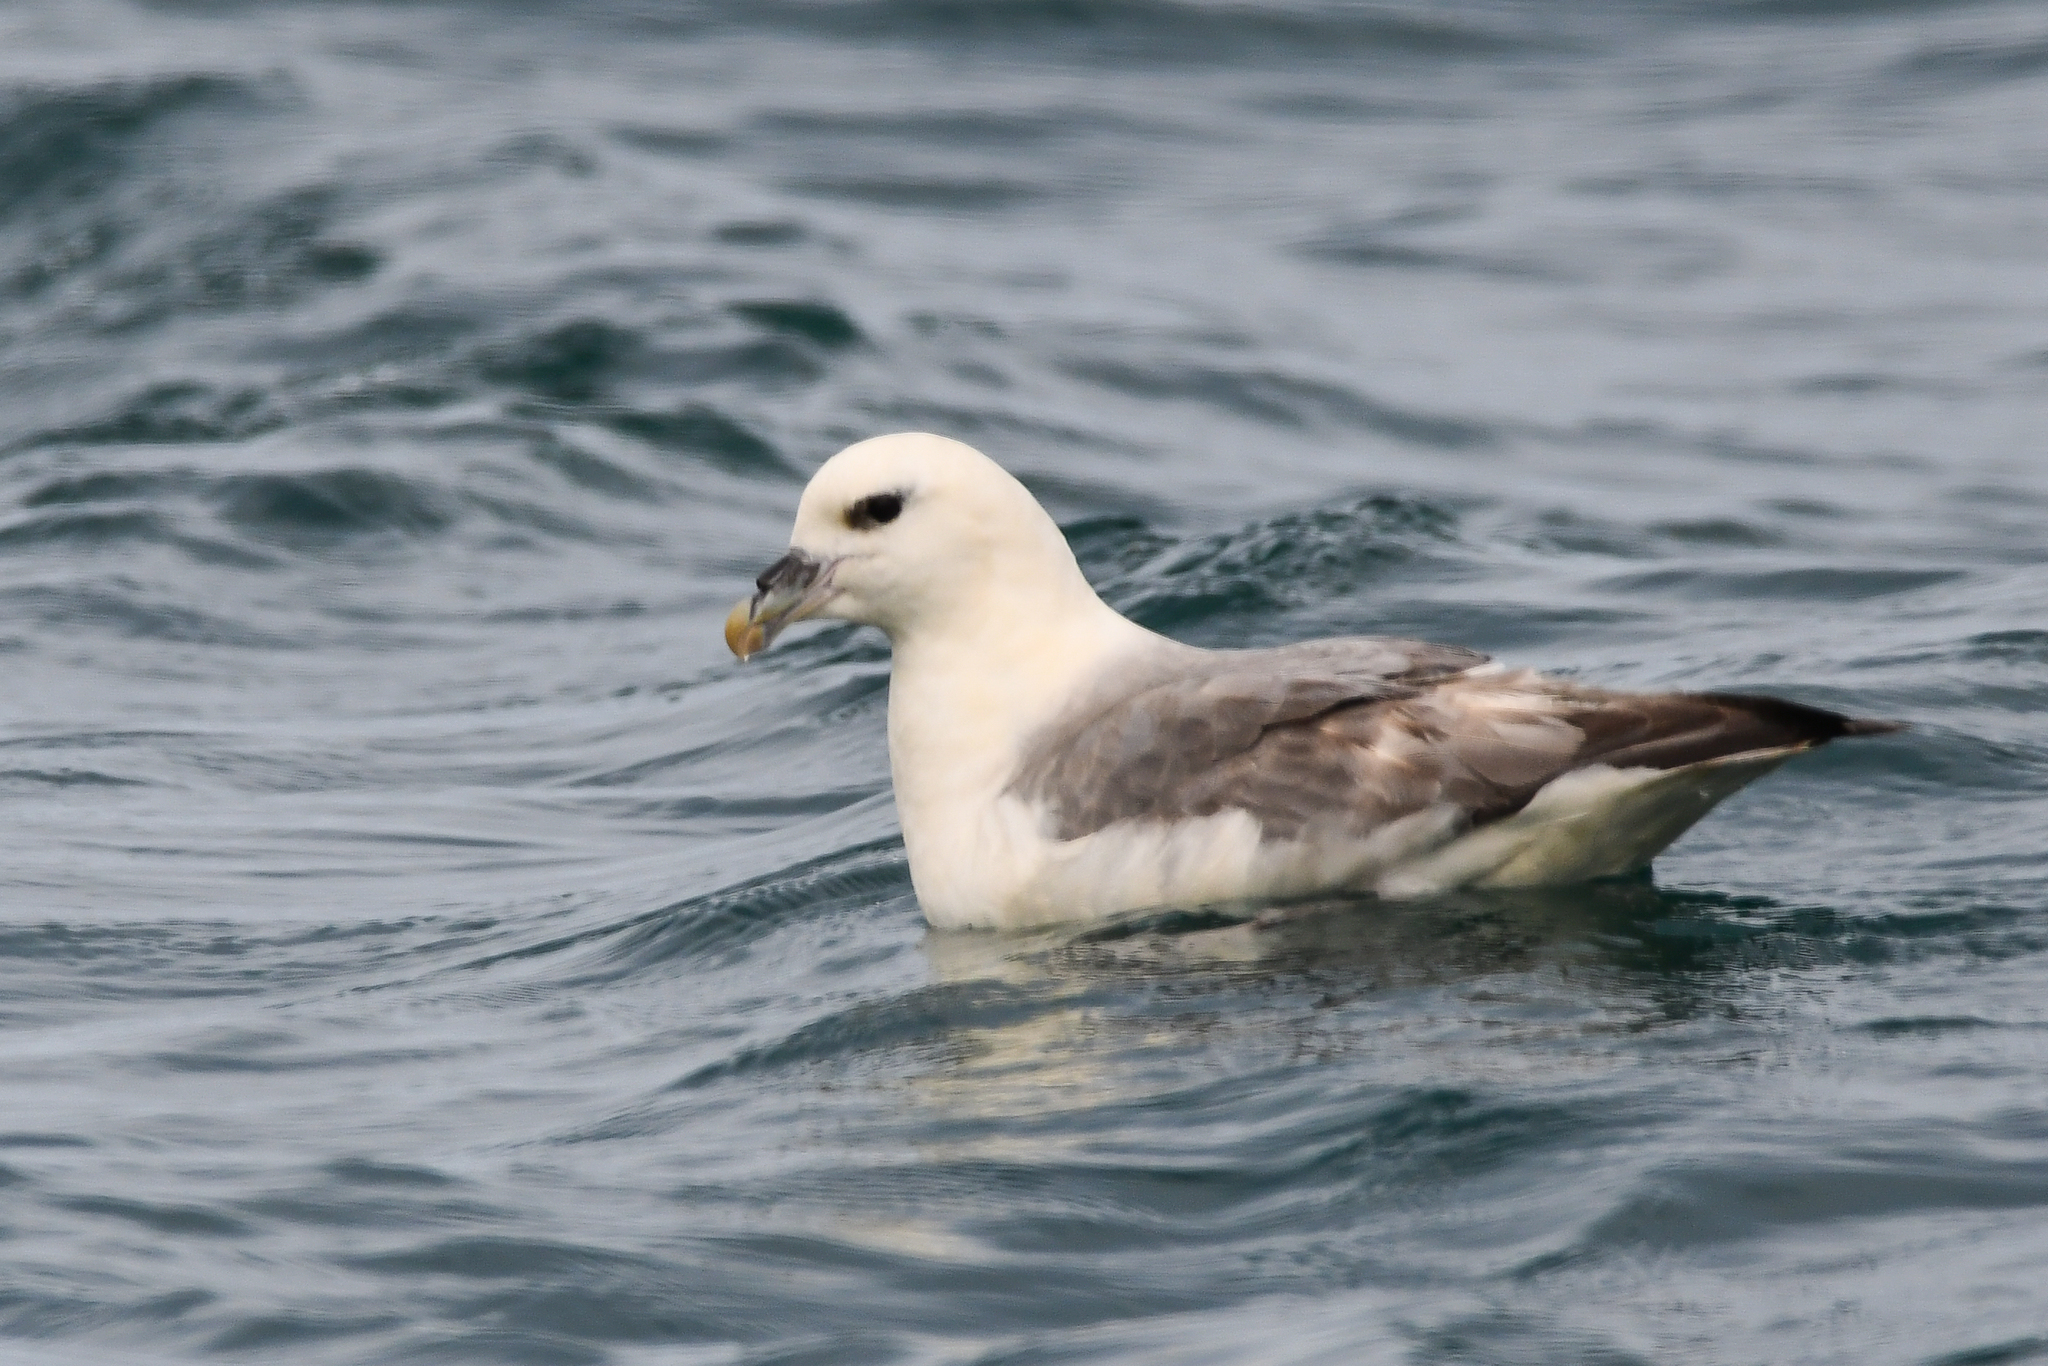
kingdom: Animalia
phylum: Chordata
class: Aves
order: Procellariiformes
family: Procellariidae
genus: Fulmarus
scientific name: Fulmarus glacialis
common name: Northern fulmar
